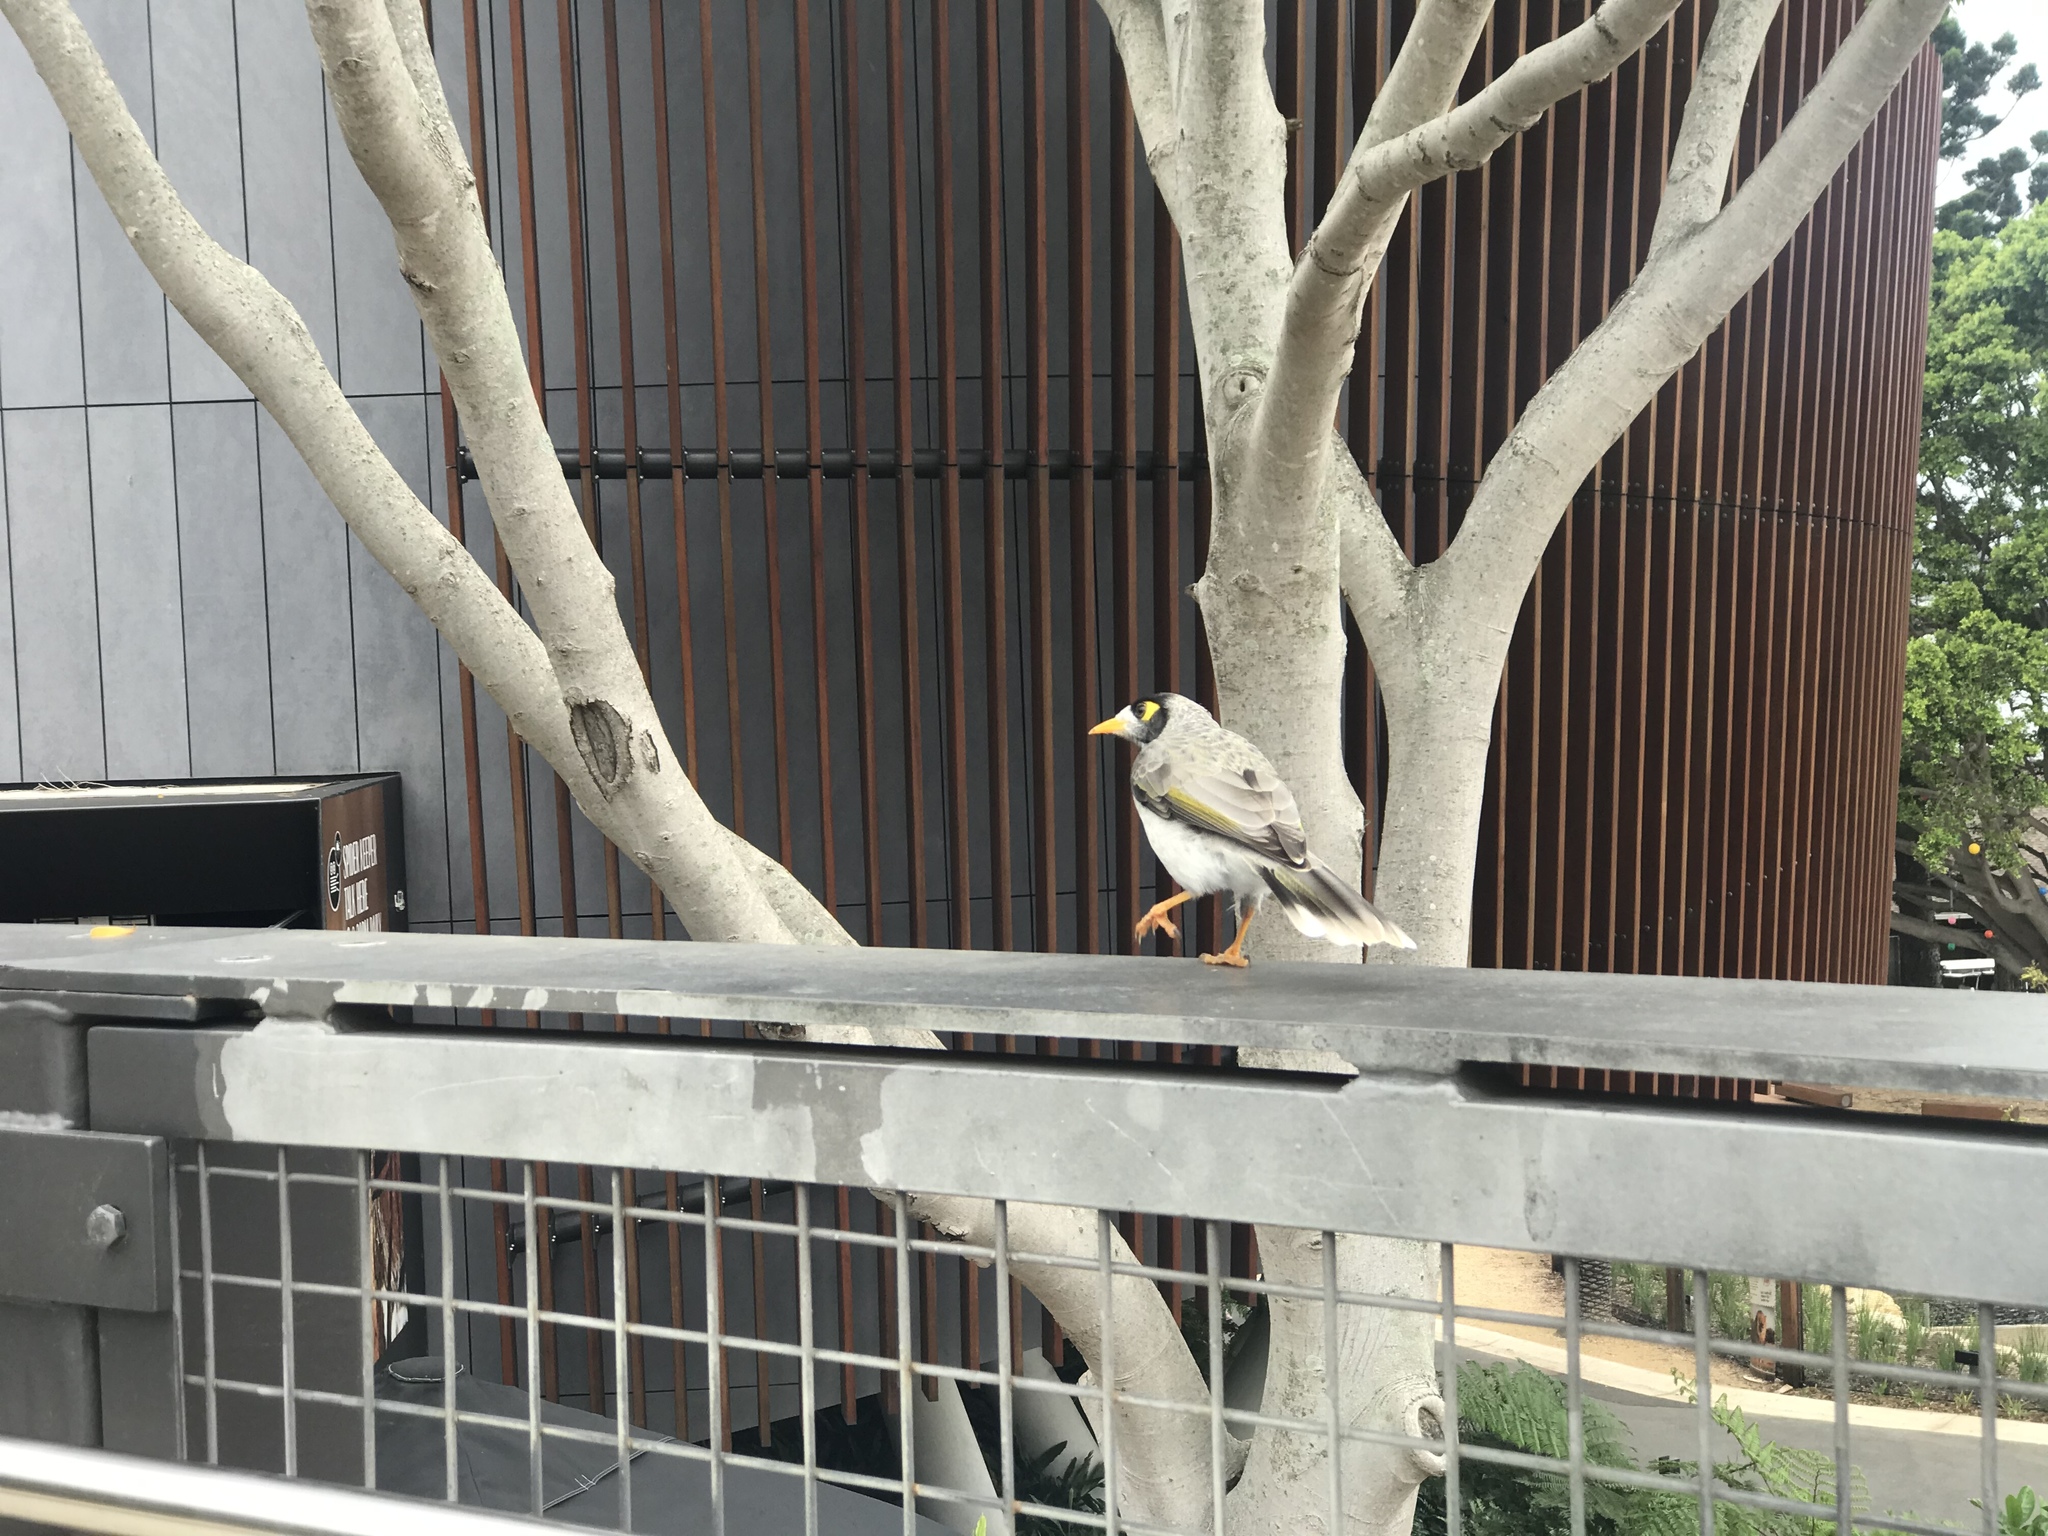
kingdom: Animalia
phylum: Chordata
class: Aves
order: Passeriformes
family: Meliphagidae
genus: Manorina
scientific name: Manorina melanocephala
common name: Noisy miner
